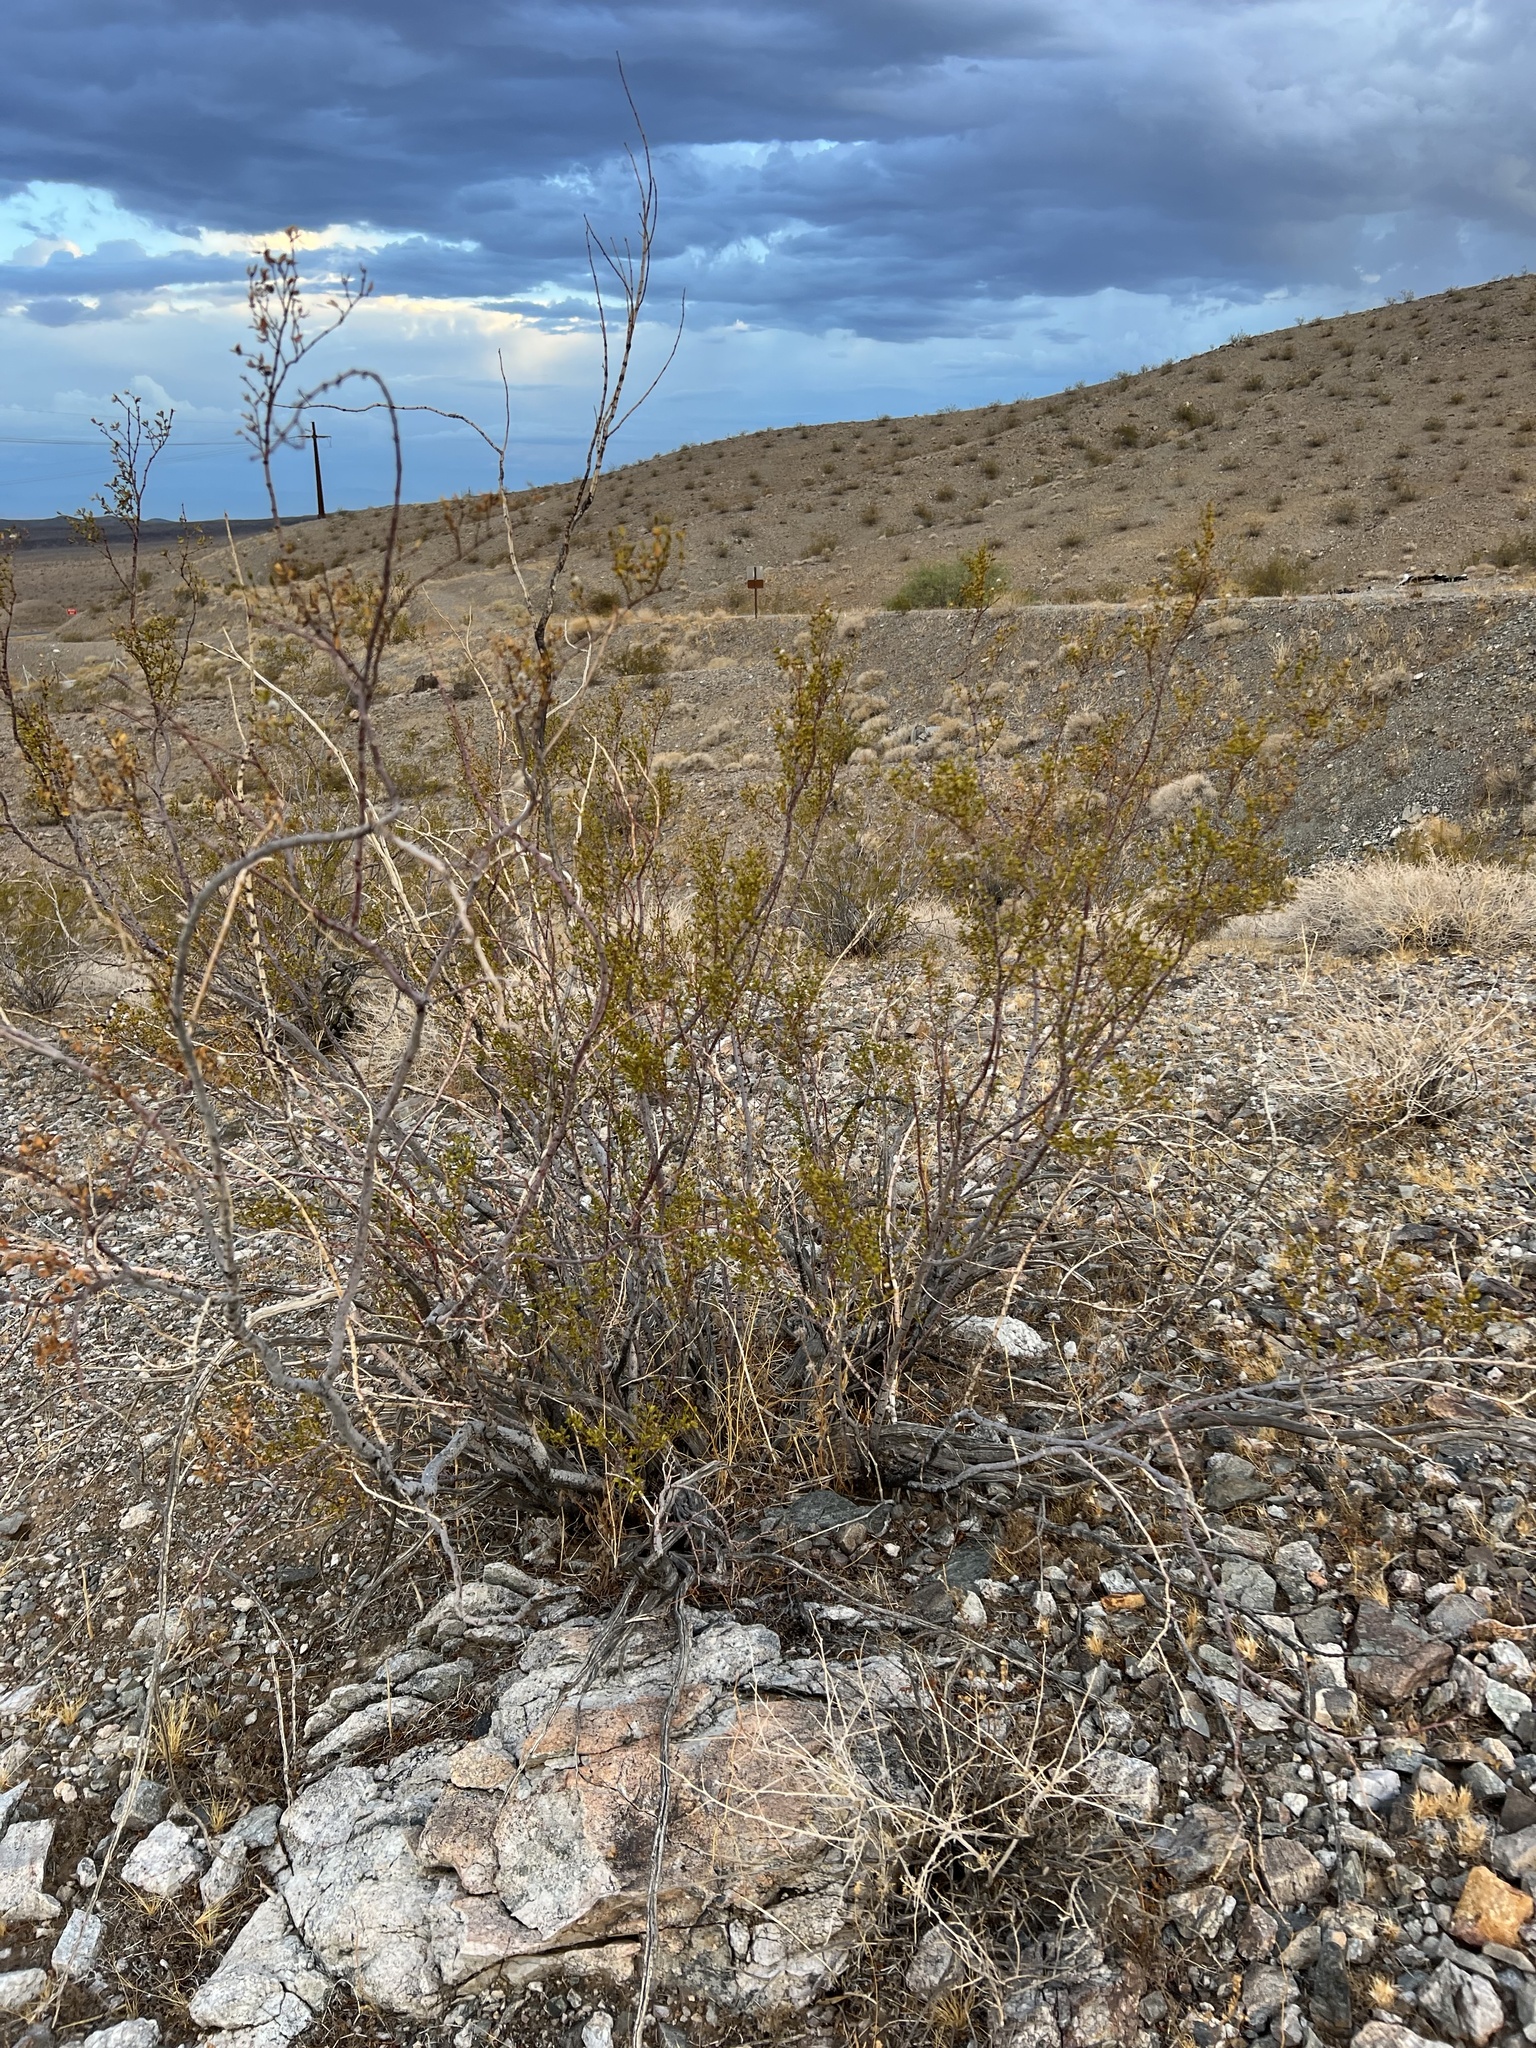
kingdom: Plantae
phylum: Tracheophyta
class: Magnoliopsida
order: Zygophyllales
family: Zygophyllaceae
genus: Larrea
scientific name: Larrea tridentata
